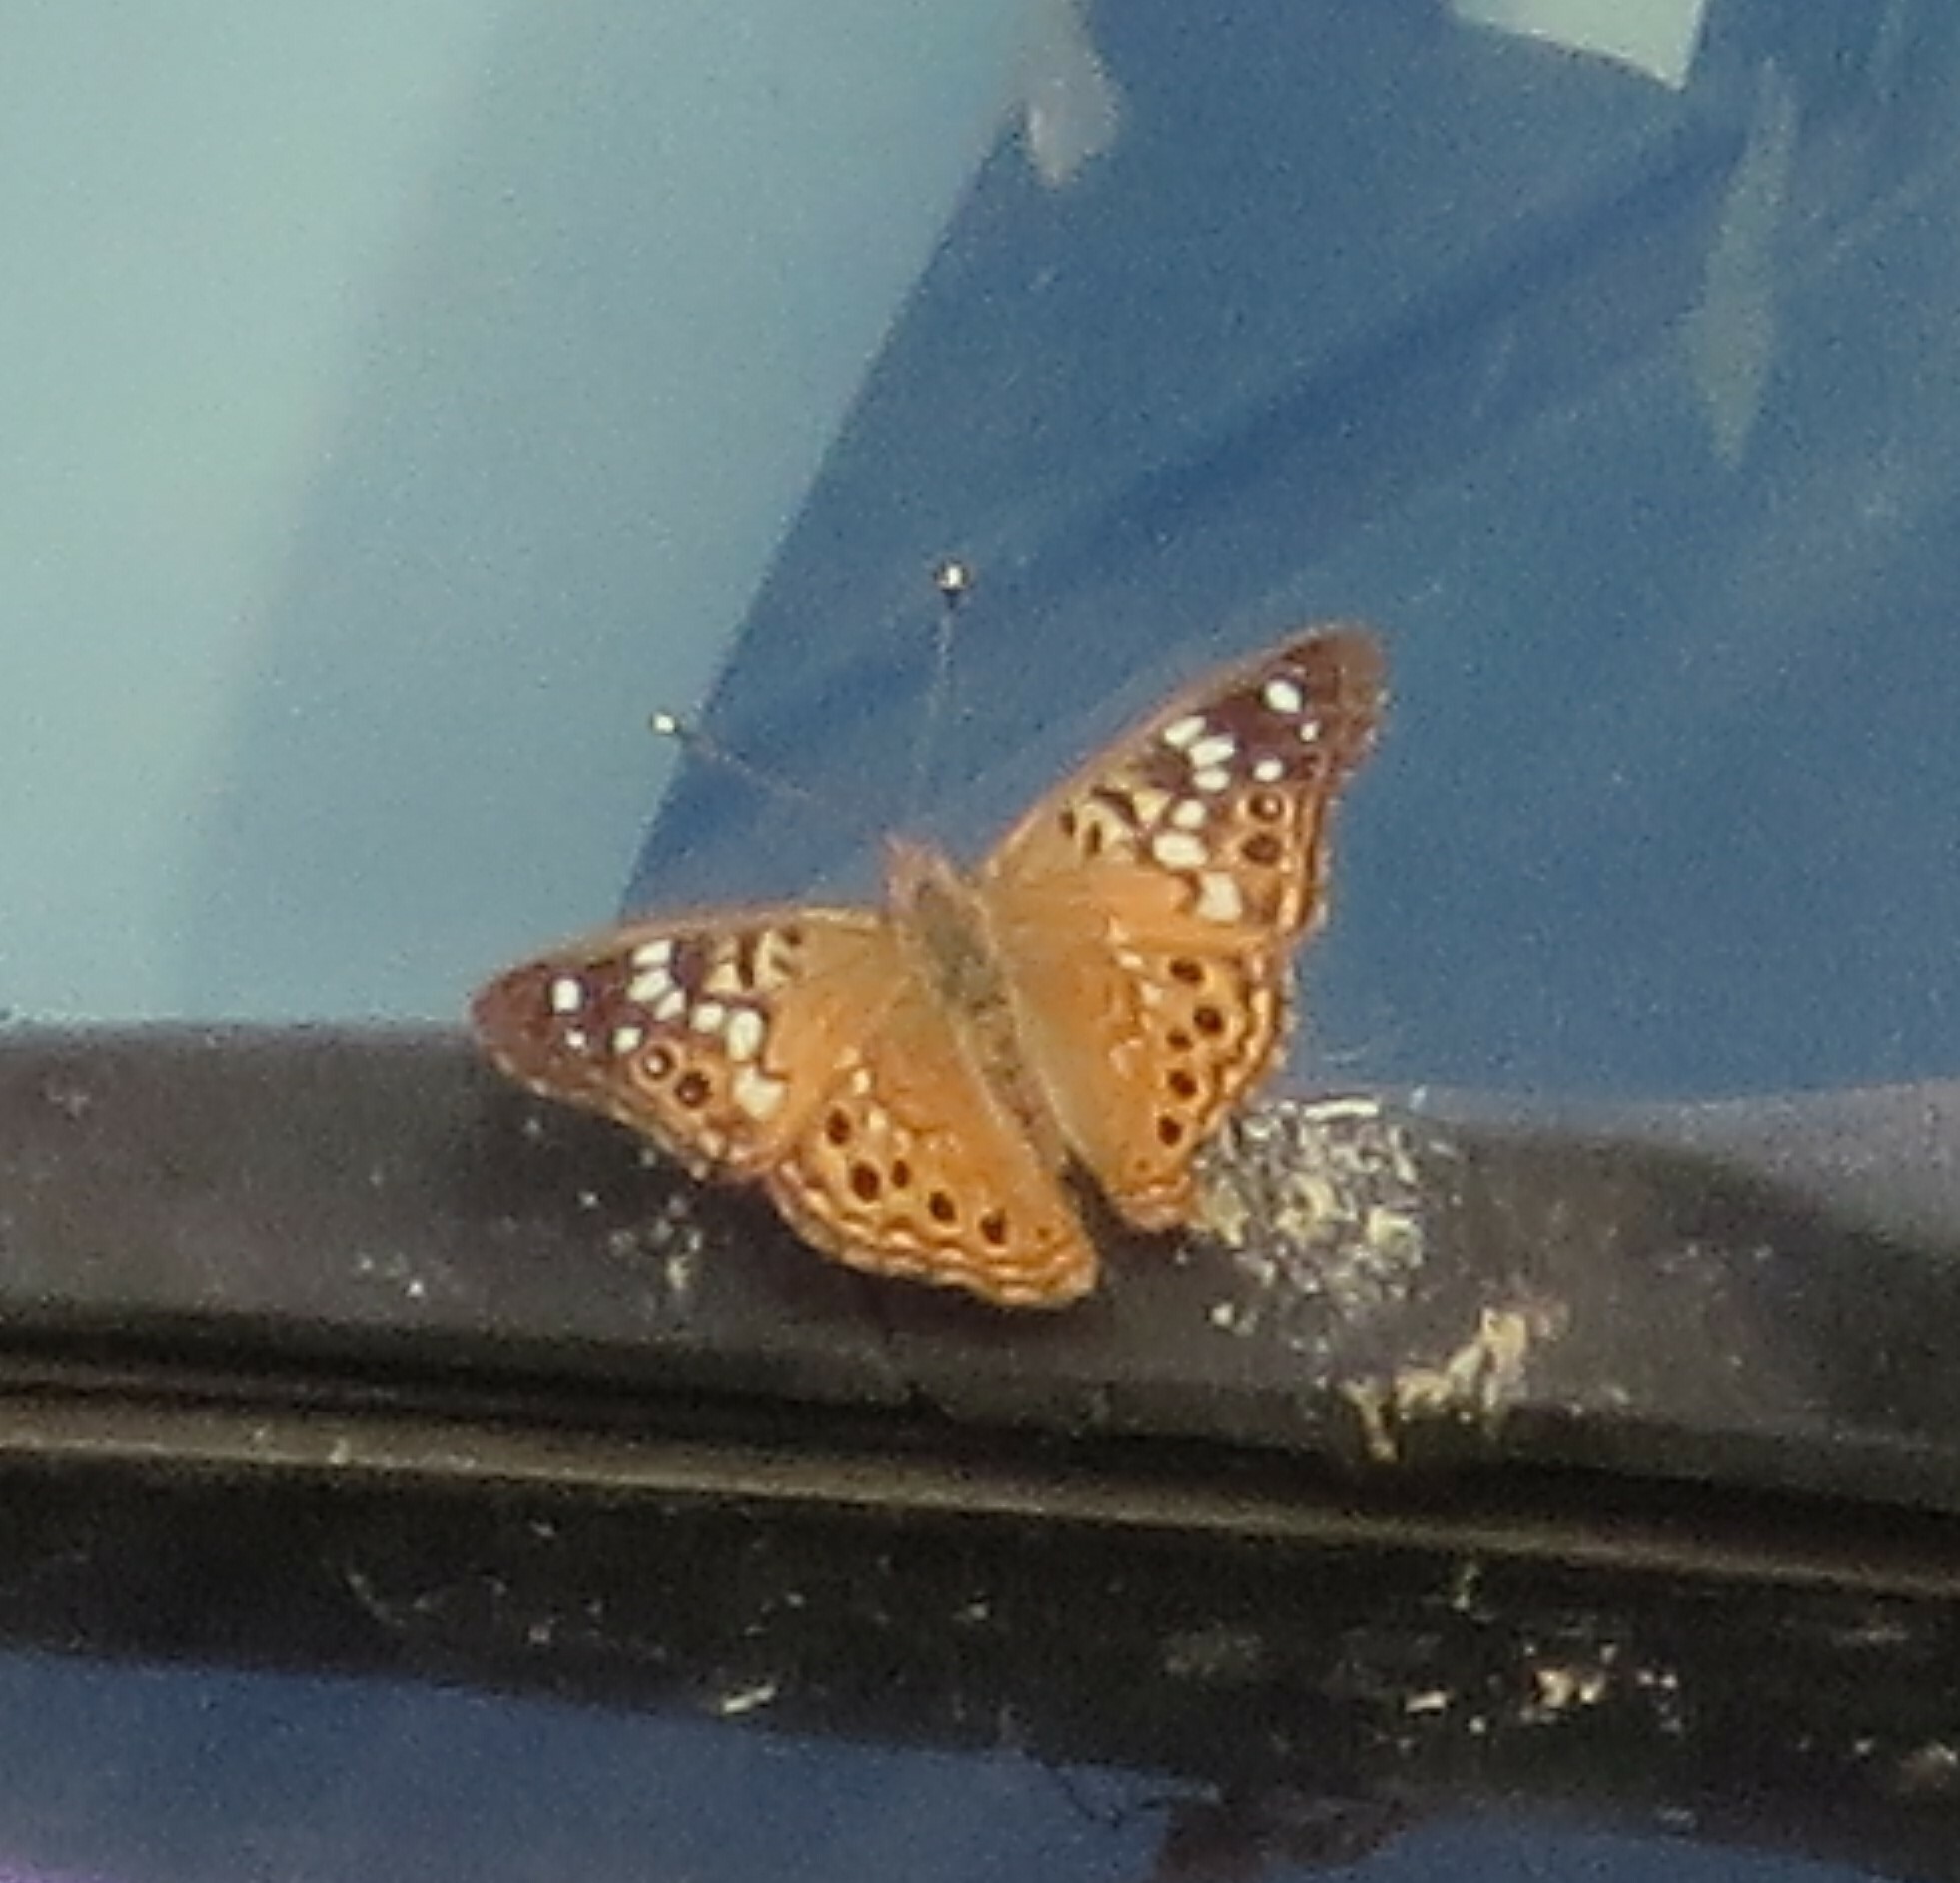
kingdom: Animalia
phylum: Arthropoda
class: Insecta
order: Lepidoptera
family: Nymphalidae
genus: Asterocampa
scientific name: Asterocampa celtis
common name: Hackberry emperor
